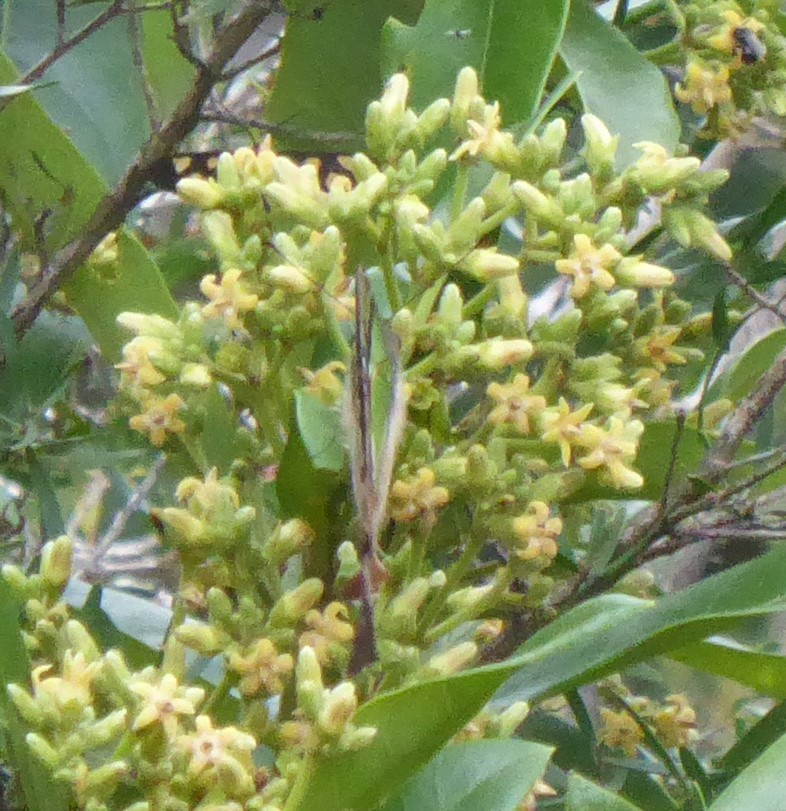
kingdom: Animalia
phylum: Arthropoda
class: Insecta
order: Lepidoptera
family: Papilionidae
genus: Graphium
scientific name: Graphium macleayanus
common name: Macleay's swallowtail
